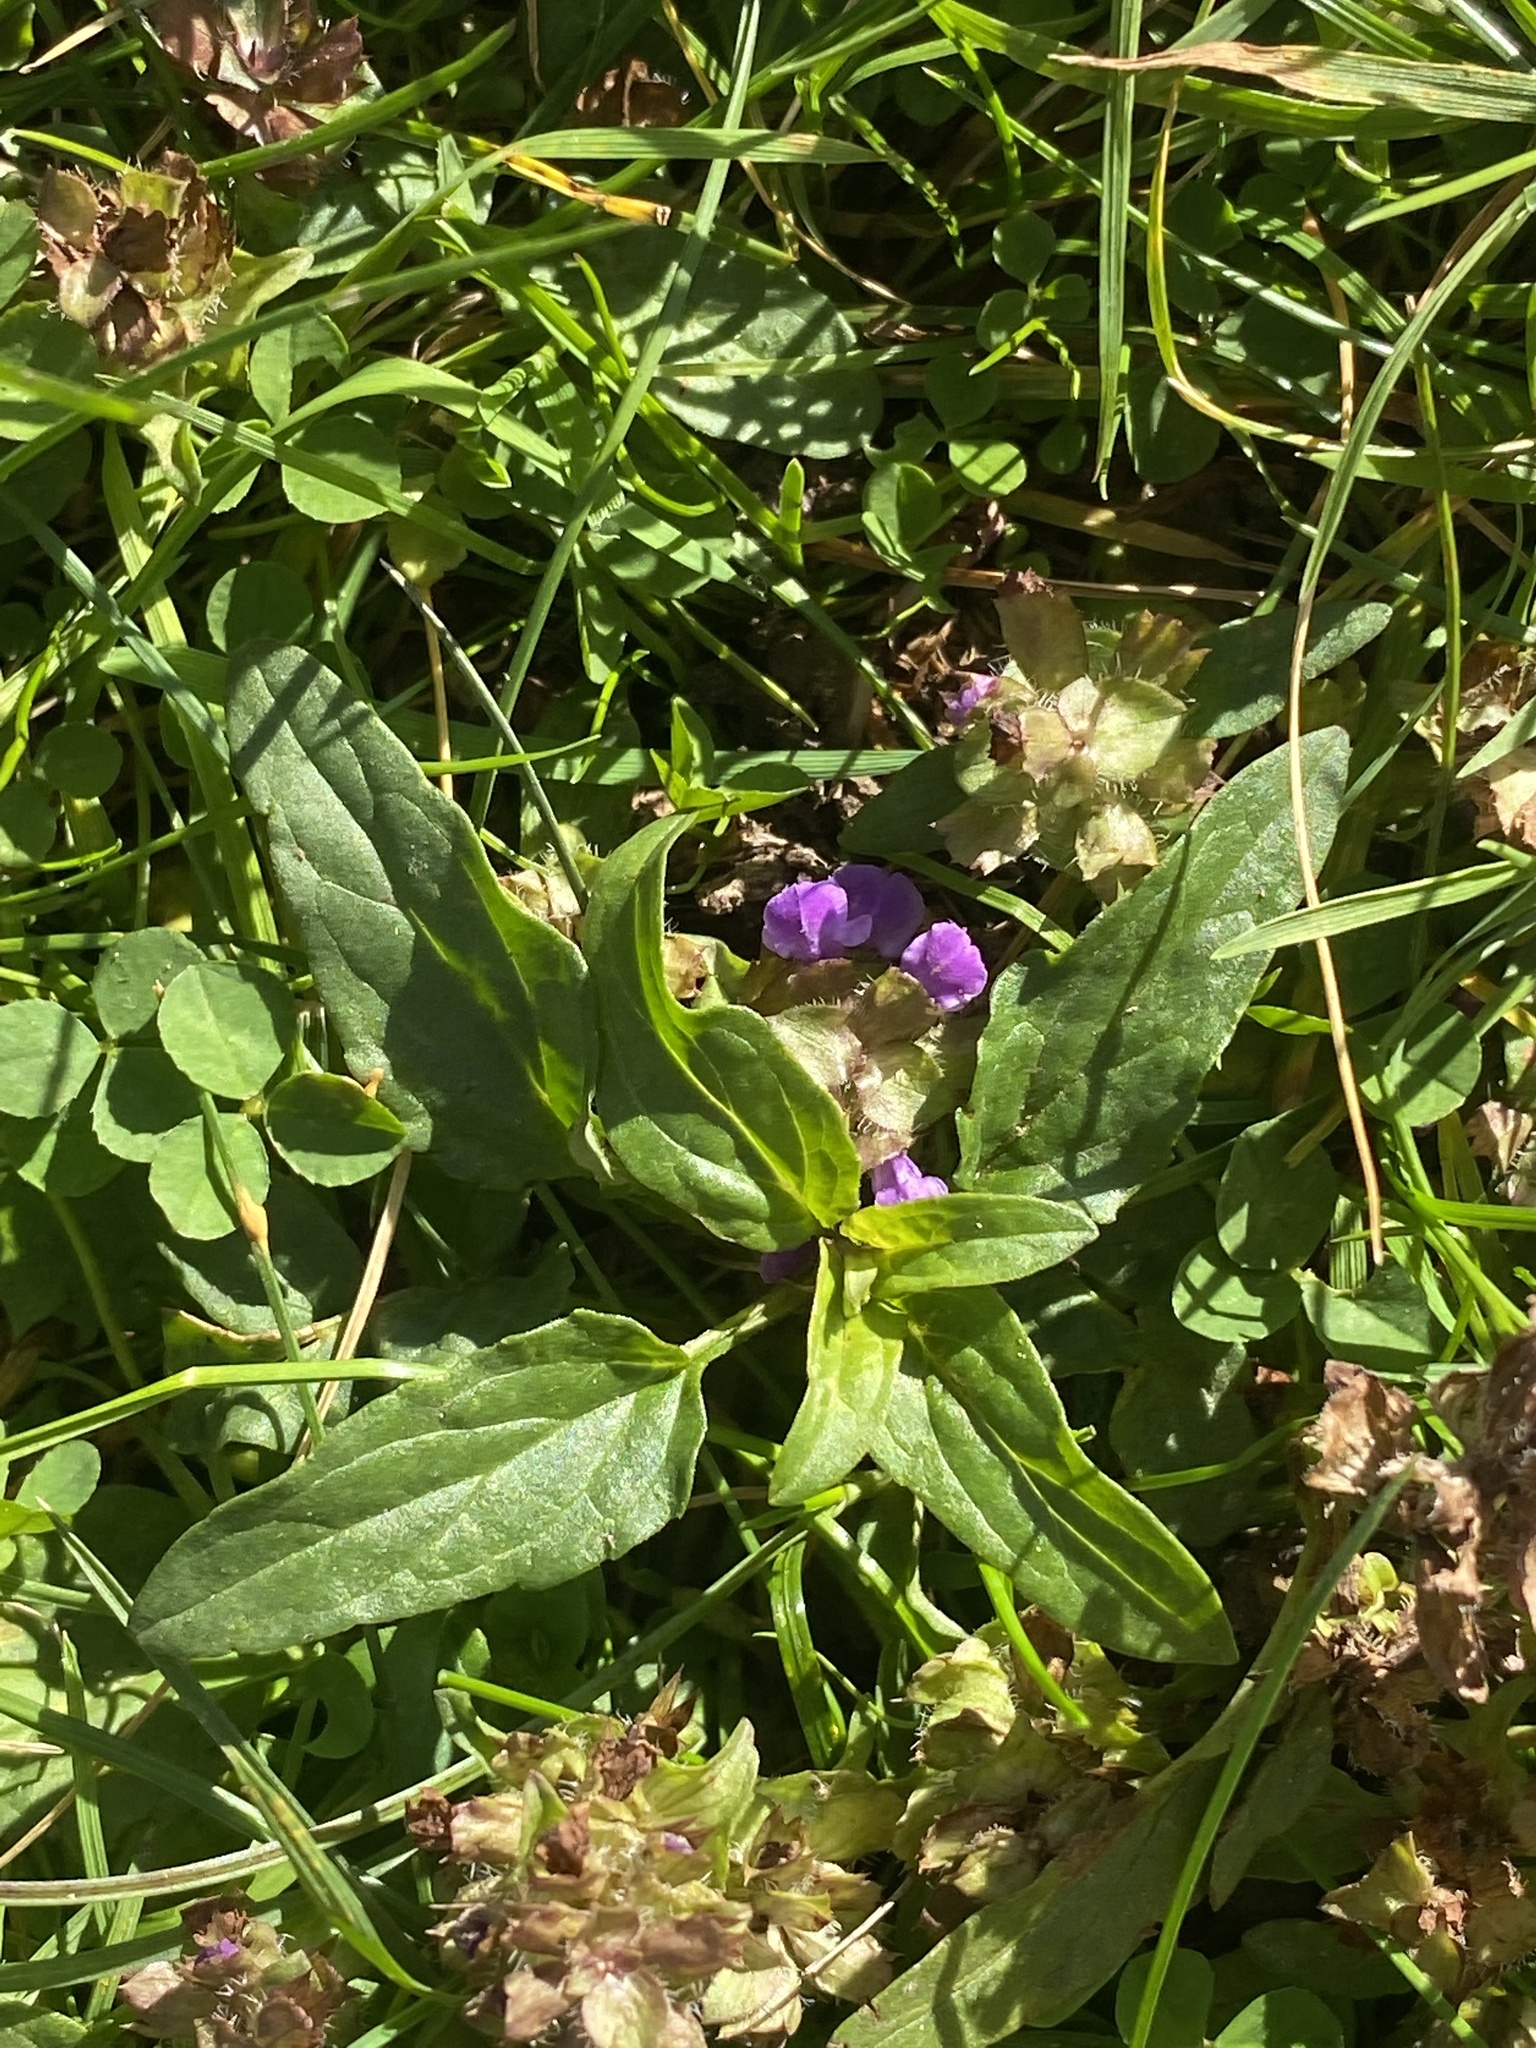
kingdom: Plantae
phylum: Tracheophyta
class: Magnoliopsida
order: Lamiales
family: Lamiaceae
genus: Prunella
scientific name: Prunella vulgaris
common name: Heal-all
